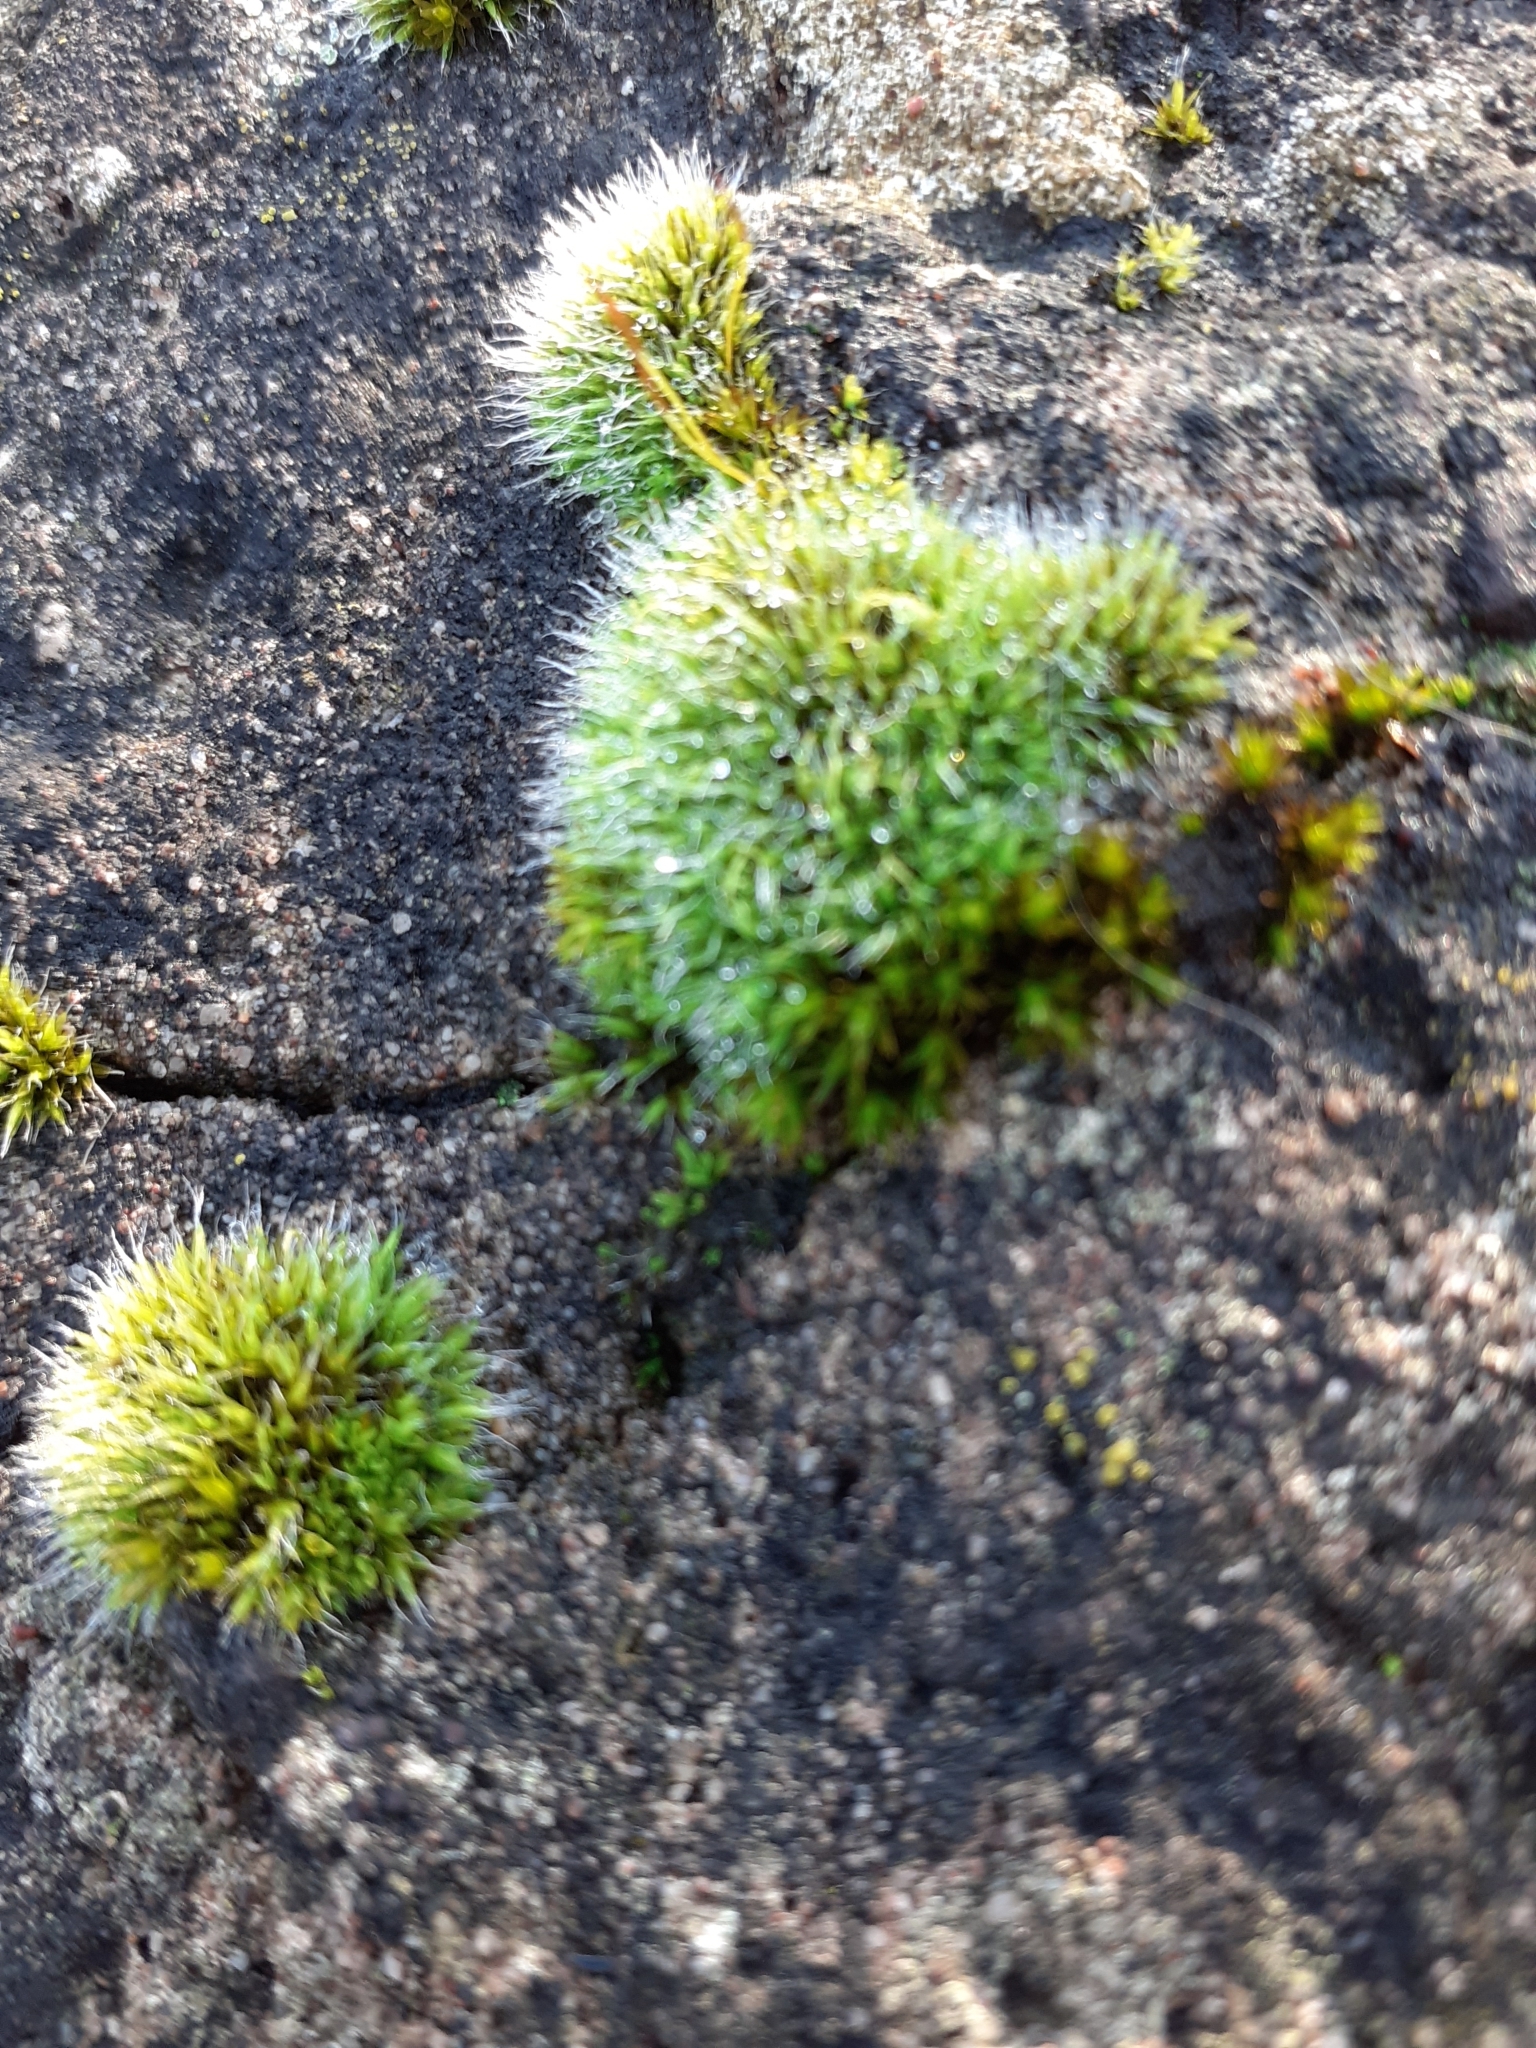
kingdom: Plantae
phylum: Bryophyta
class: Bryopsida
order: Grimmiales
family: Grimmiaceae
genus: Grimmia
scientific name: Grimmia pulvinata
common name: Grey-cushioned grimmia
